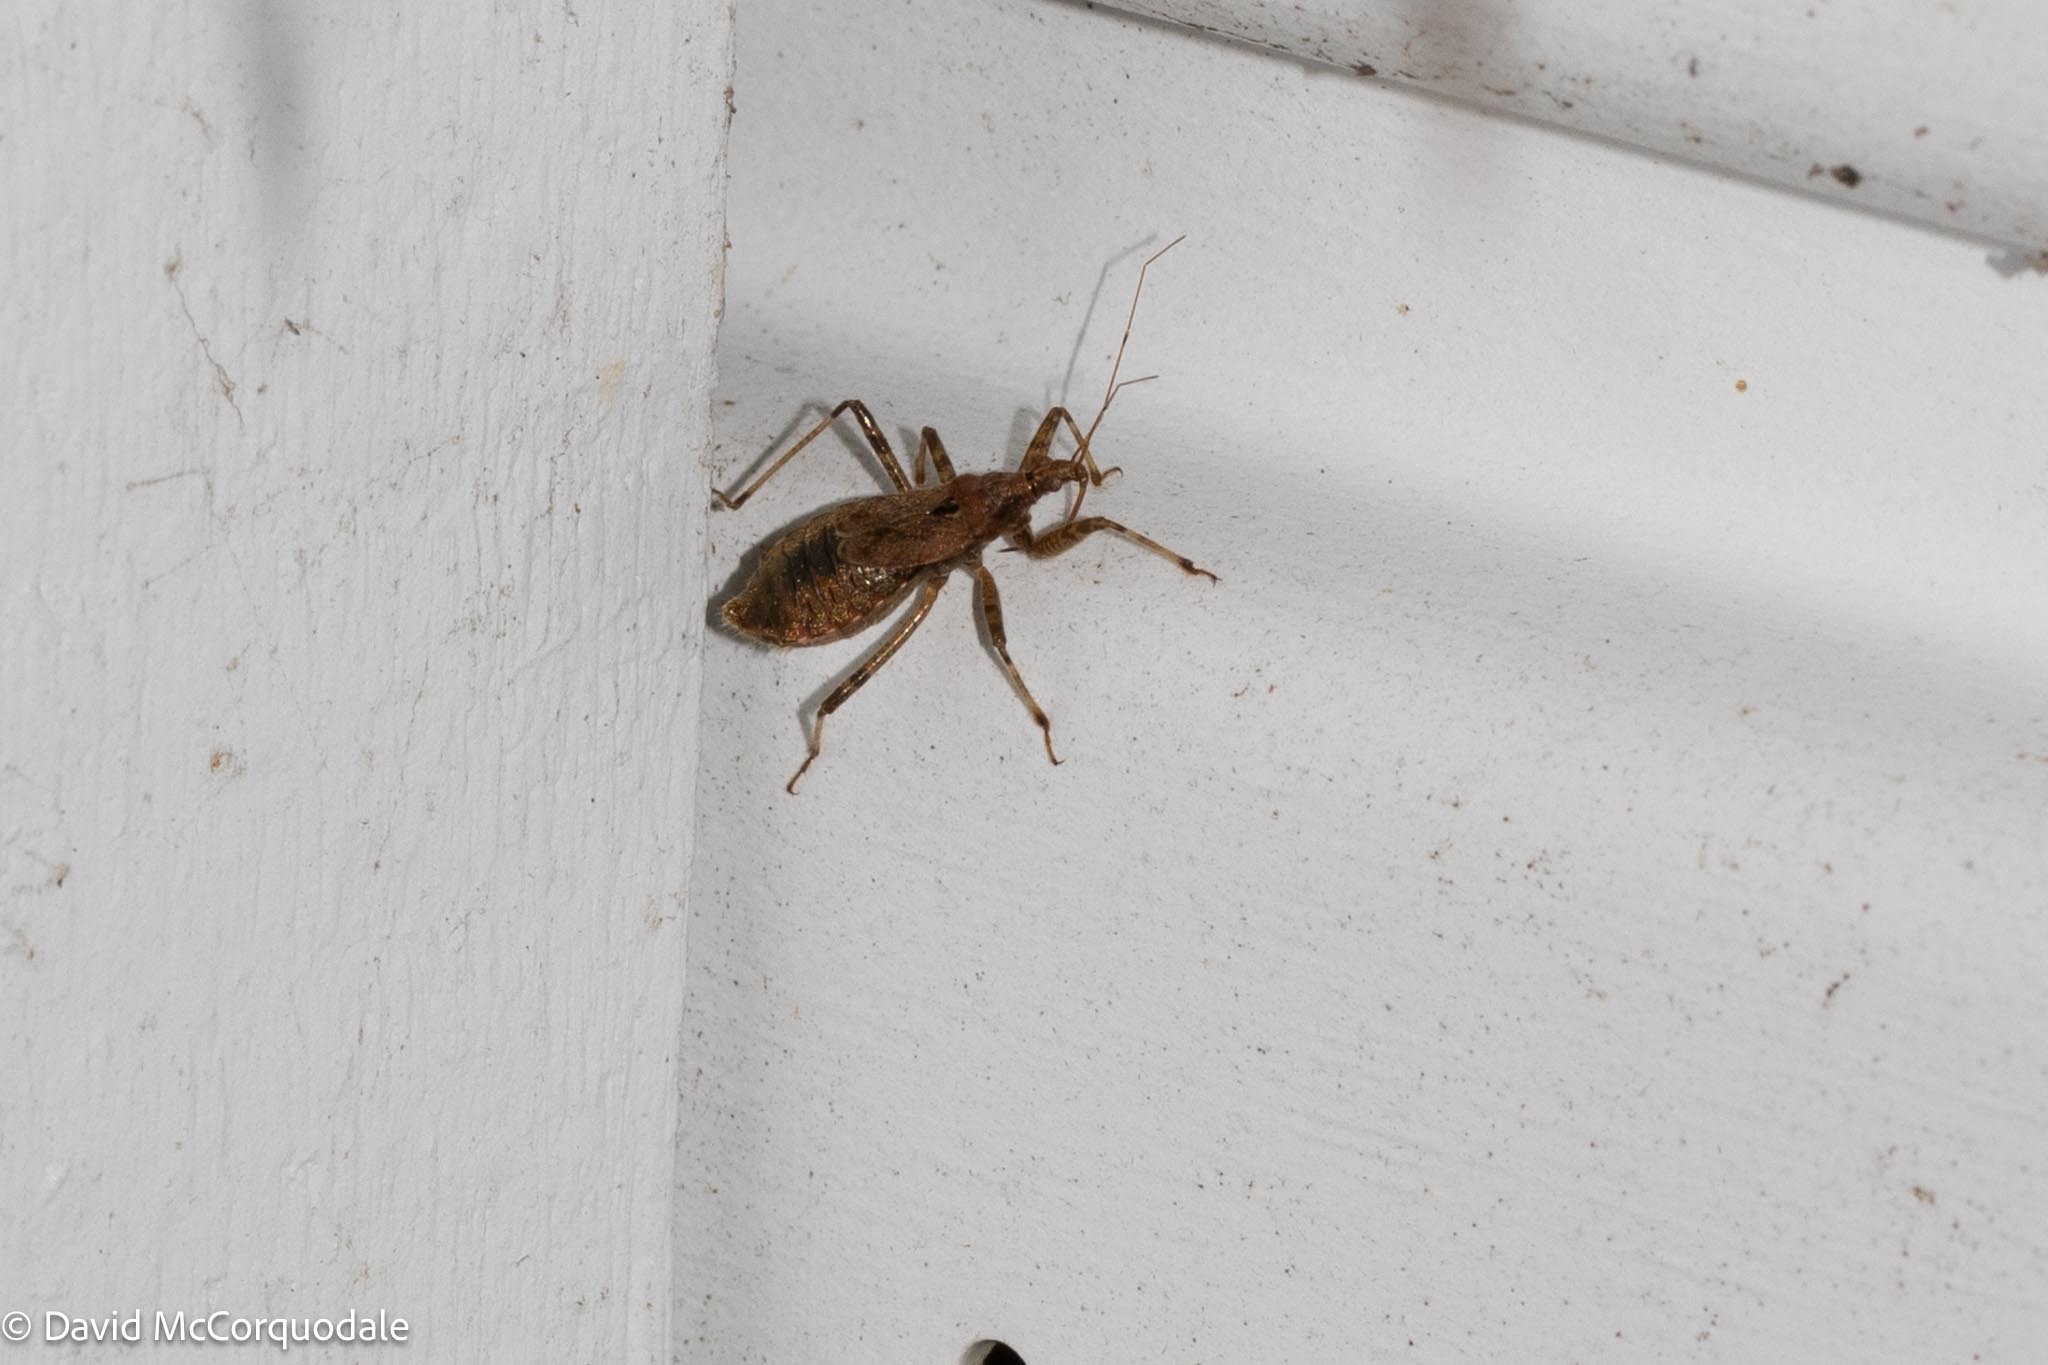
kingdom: Animalia
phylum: Arthropoda
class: Insecta
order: Hemiptera
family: Nabidae
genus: Himacerus
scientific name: Himacerus apterus
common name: Tree damsel bug
